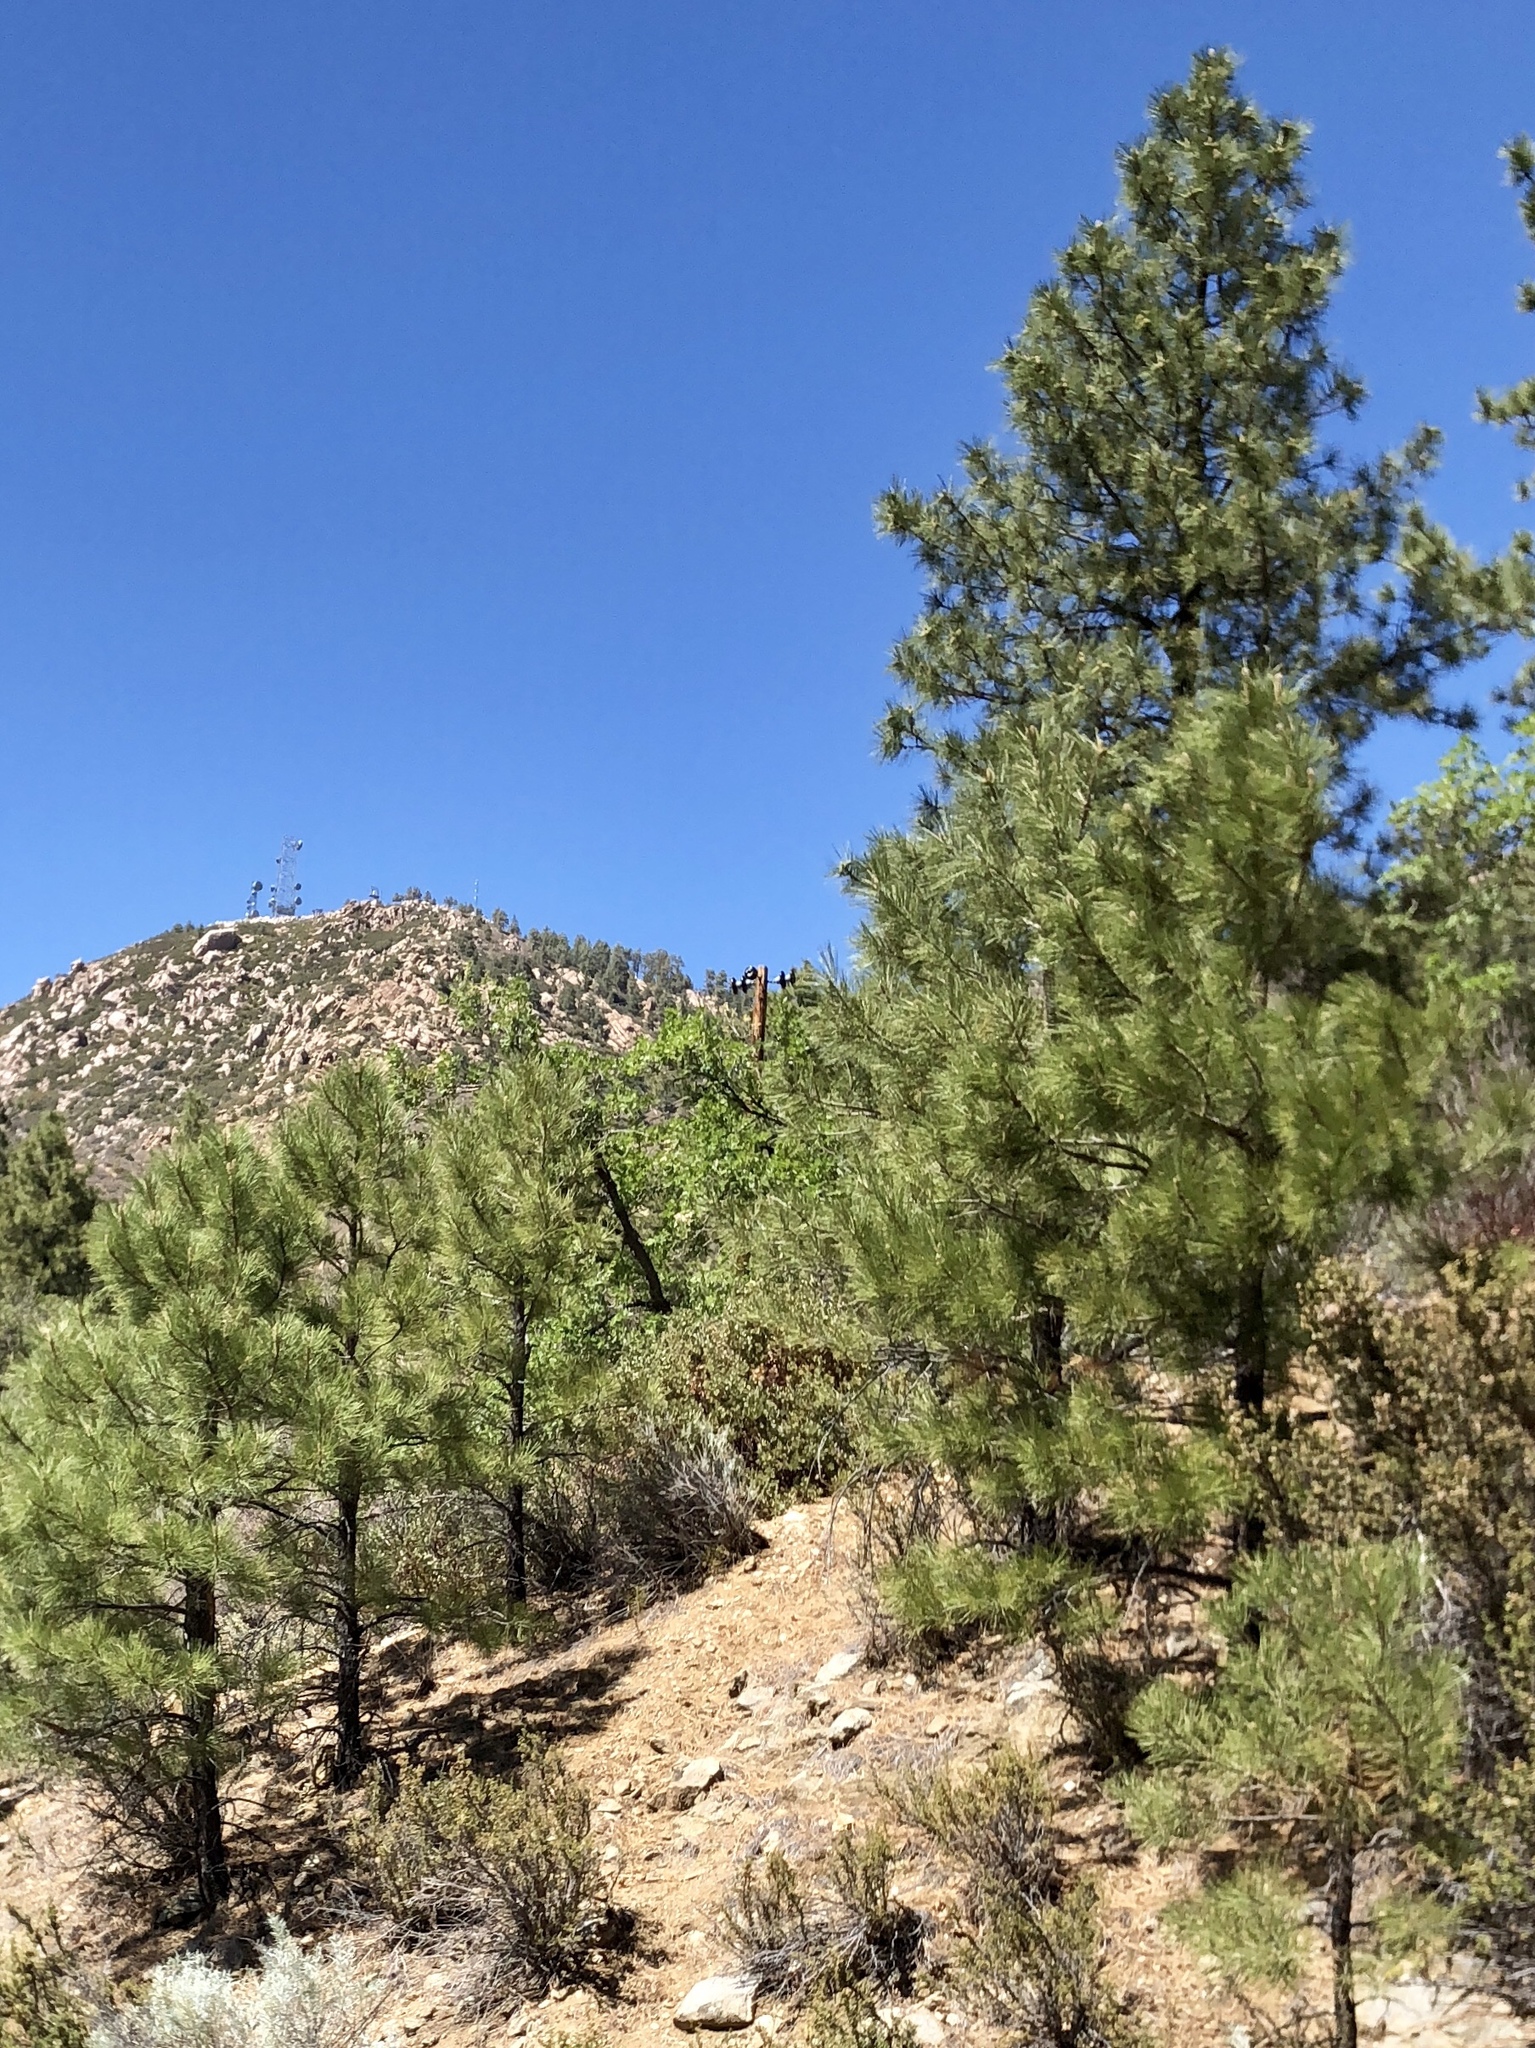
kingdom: Plantae
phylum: Tracheophyta
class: Pinopsida
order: Pinales
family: Pinaceae
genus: Pinus
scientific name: Pinus ponderosa
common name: Western yellow-pine
